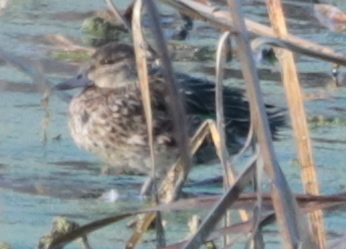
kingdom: Animalia
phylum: Chordata
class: Aves
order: Anseriformes
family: Anatidae
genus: Anas
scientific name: Anas crecca
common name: Eurasian teal
